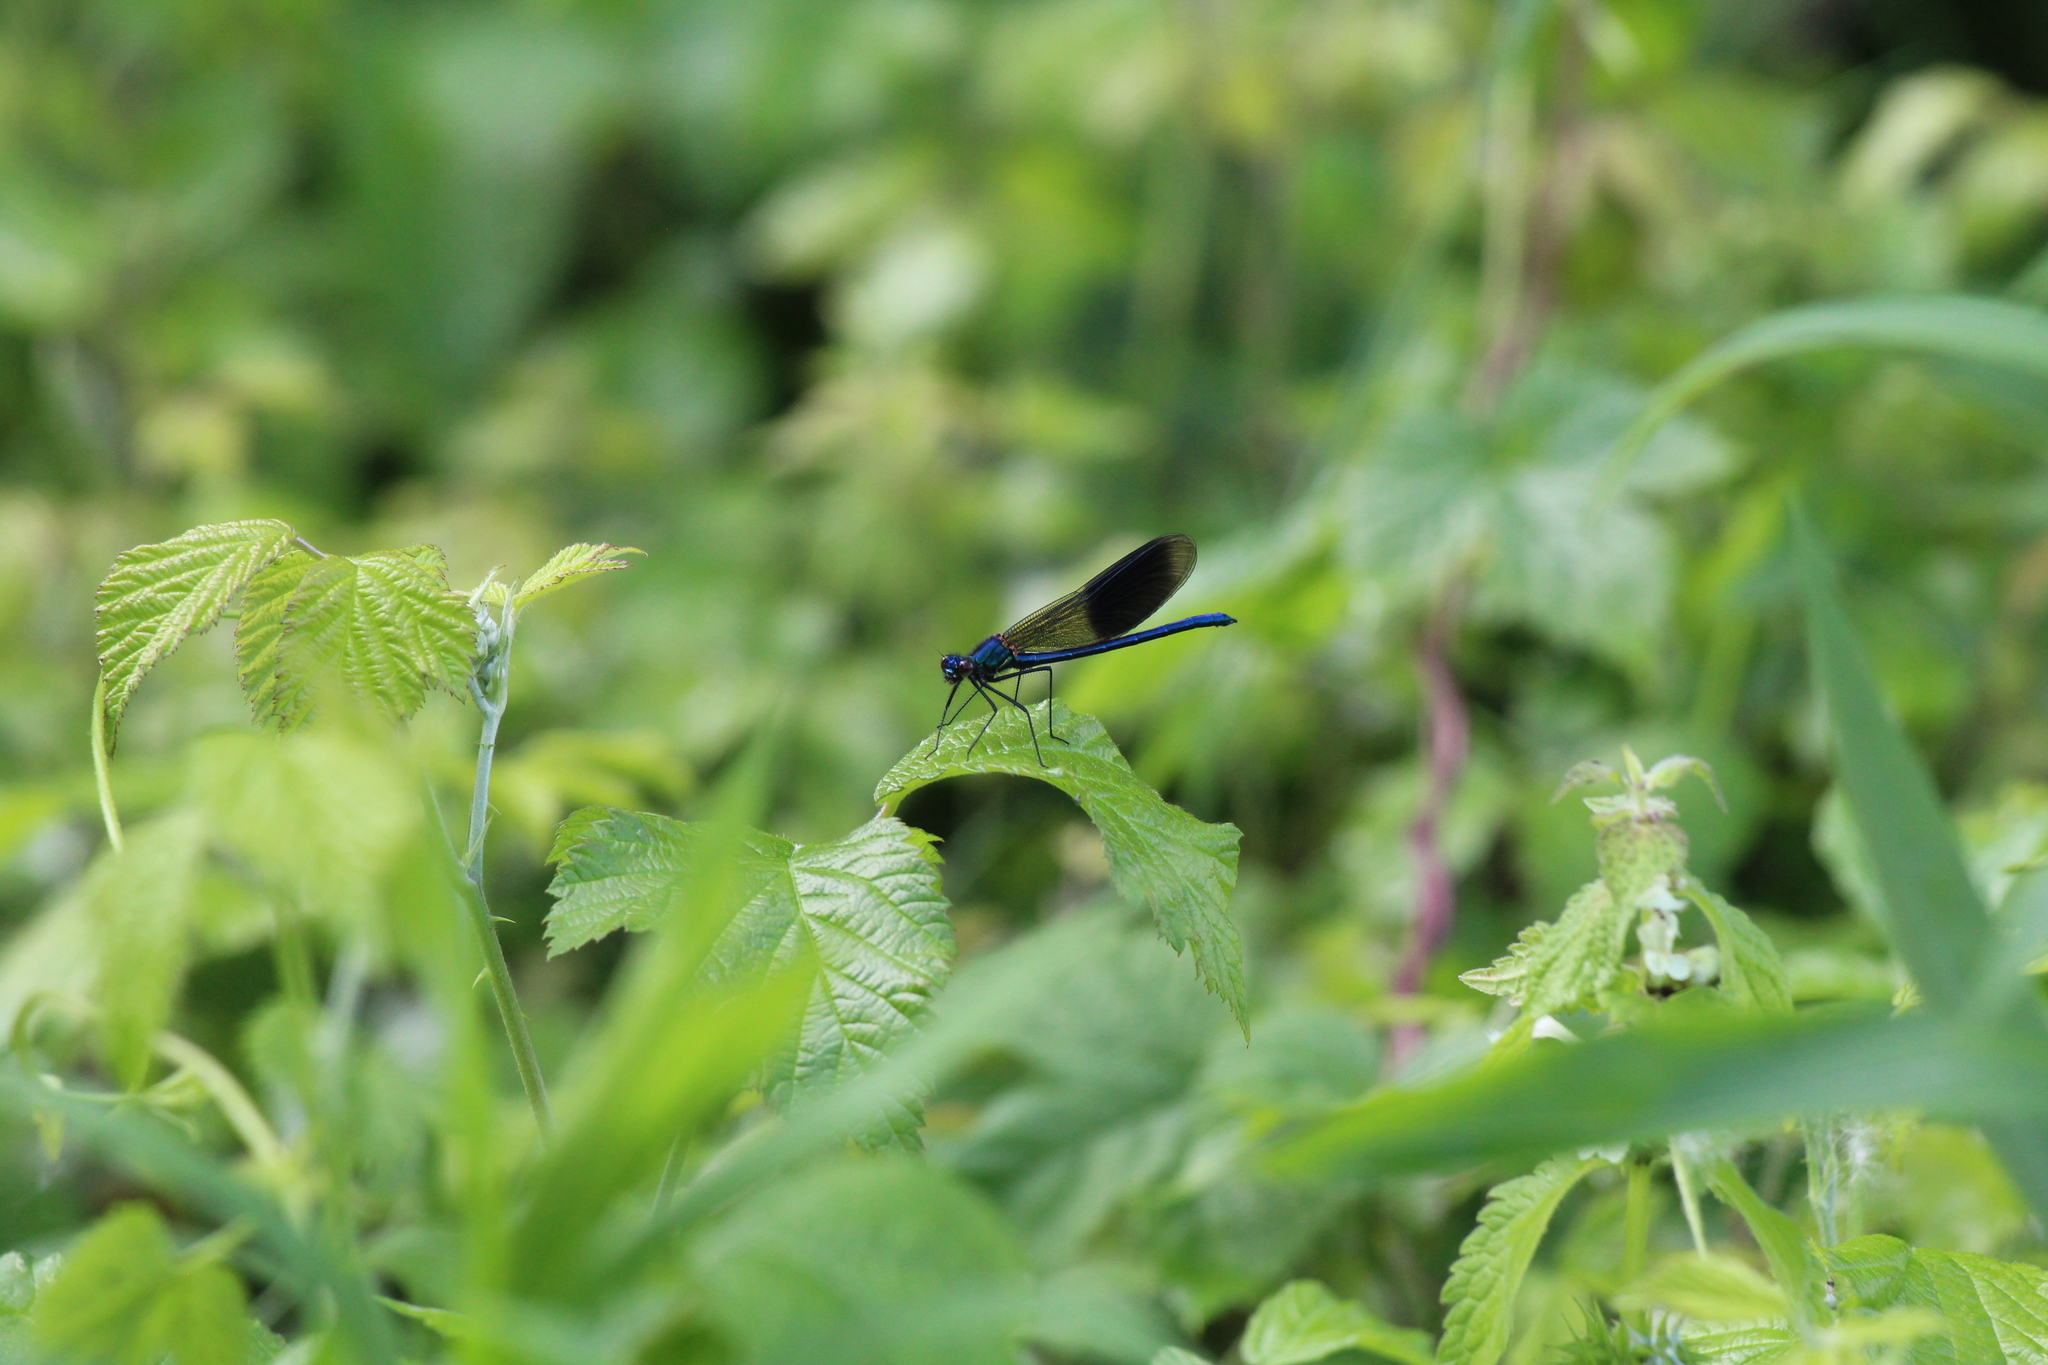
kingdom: Animalia
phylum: Arthropoda
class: Insecta
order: Odonata
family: Calopterygidae
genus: Calopteryx
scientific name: Calopteryx splendens
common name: Banded demoiselle
